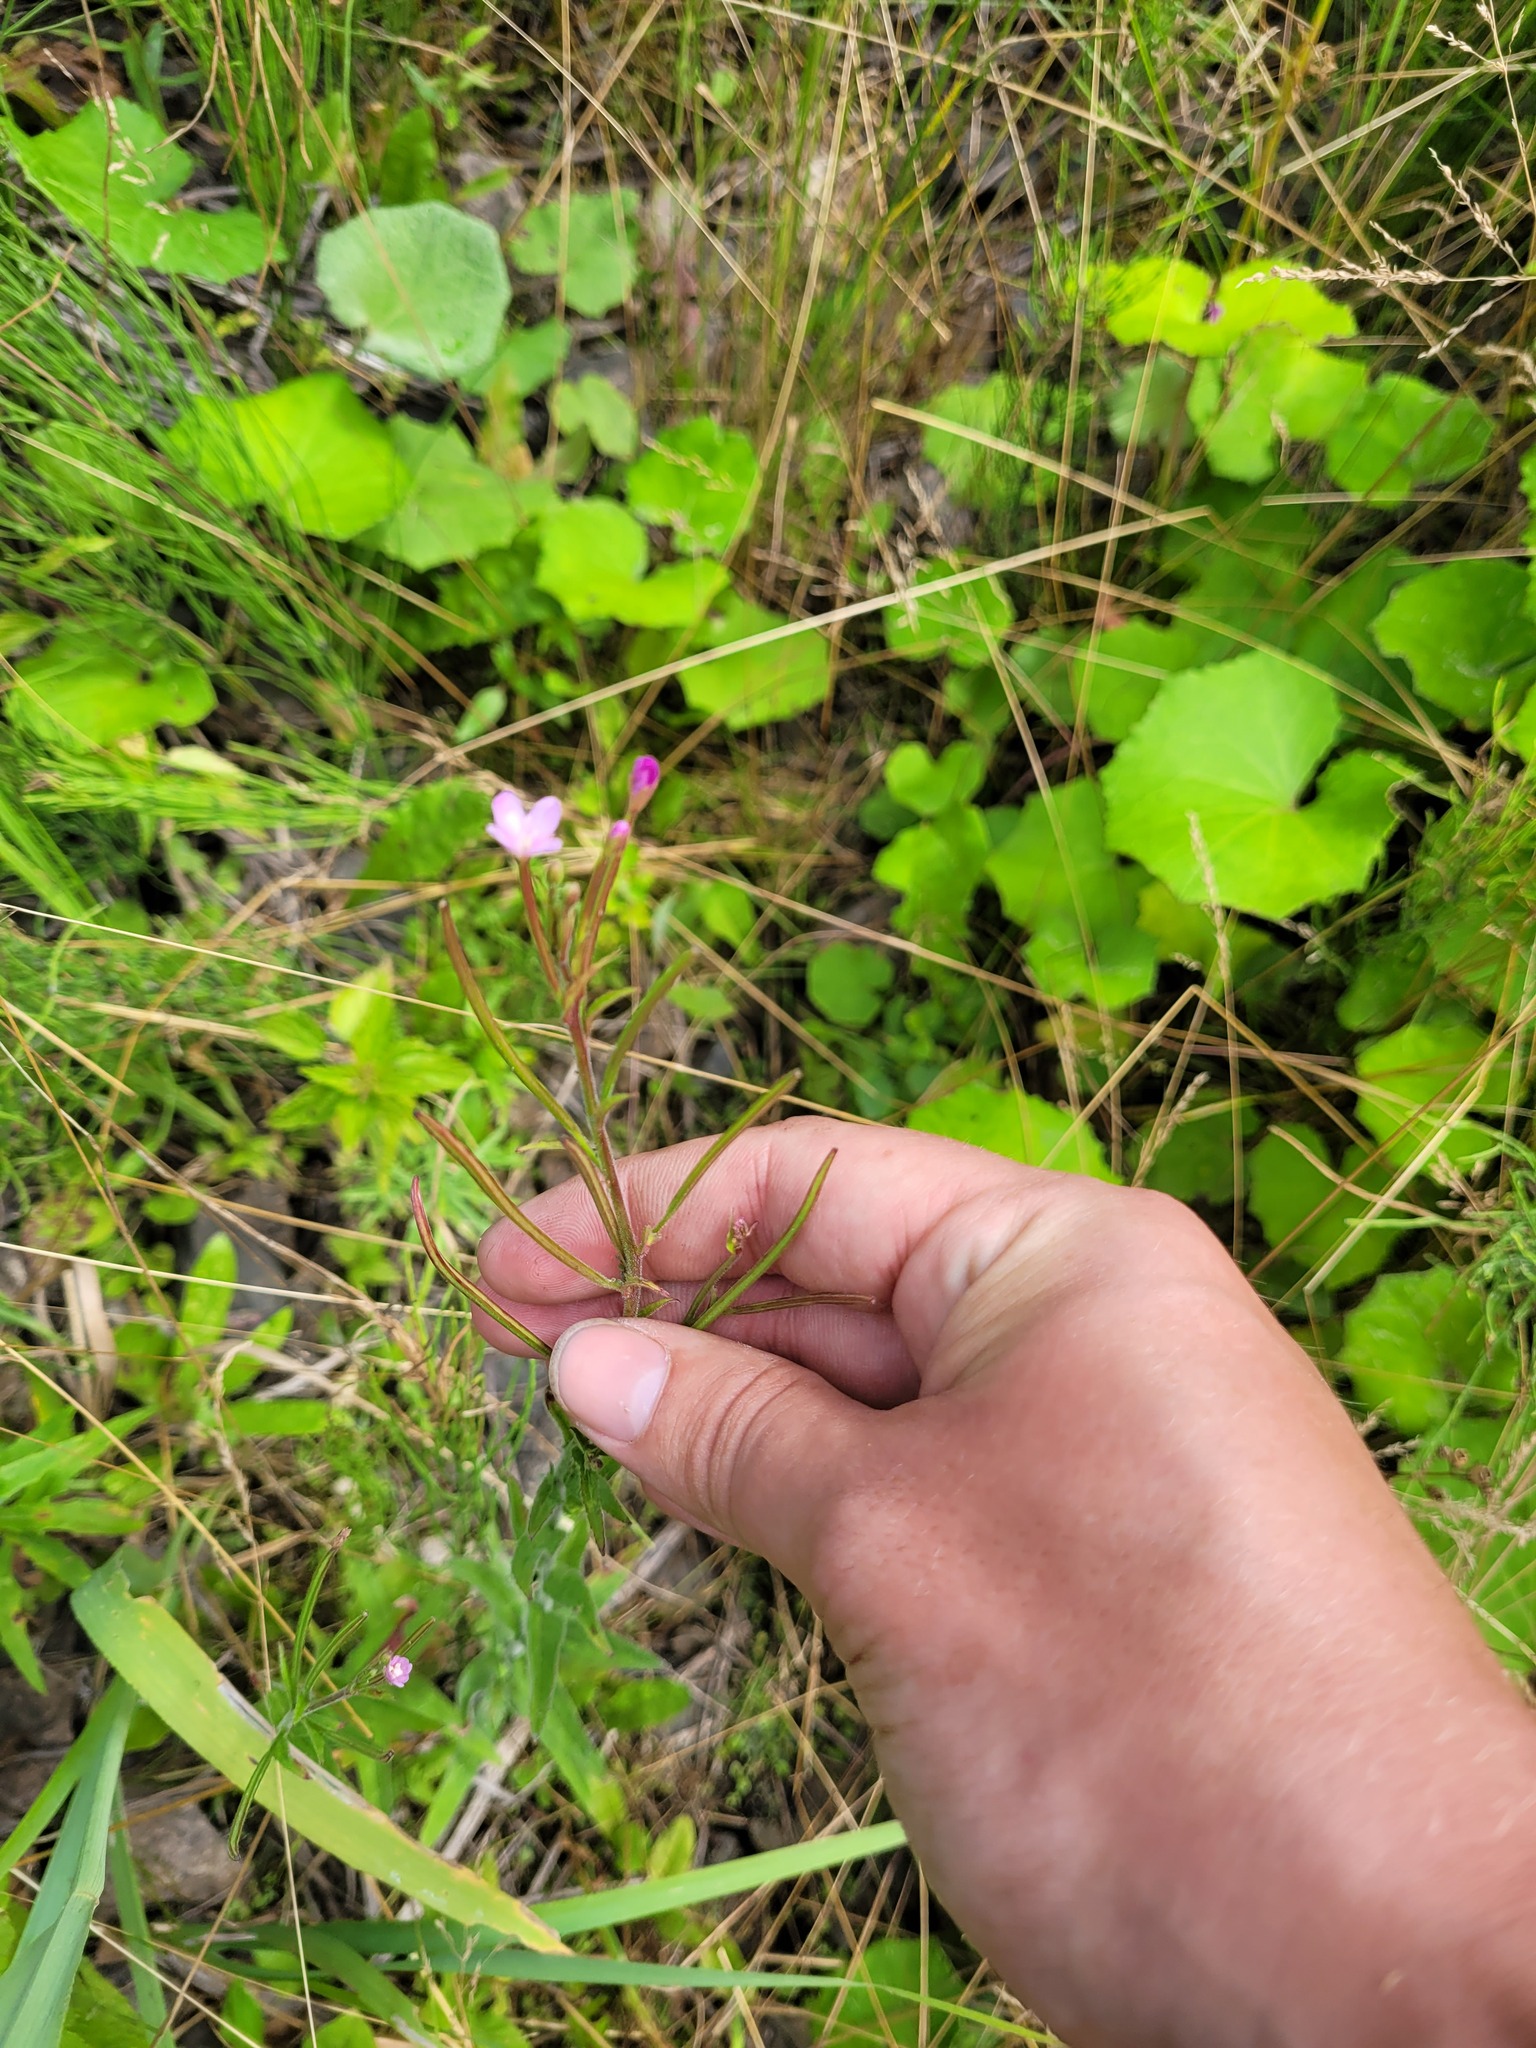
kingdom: Plantae
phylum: Tracheophyta
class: Magnoliopsida
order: Myrtales
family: Onagraceae
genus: Epilobium
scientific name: Epilobium parviflorum
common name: Hoary willowherb
